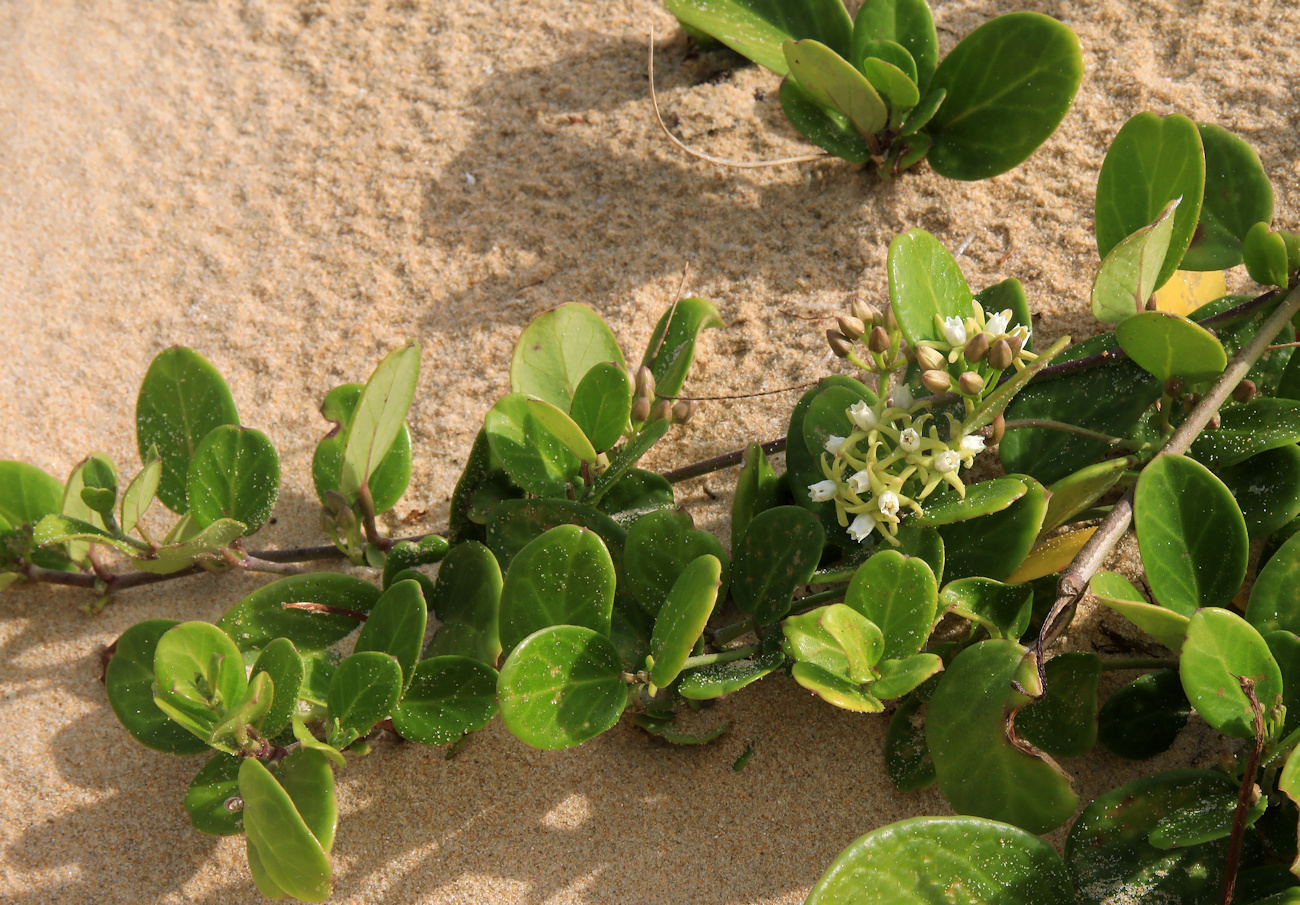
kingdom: Plantae
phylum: Tracheophyta
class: Magnoliopsida
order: Gentianales
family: Apocynaceae
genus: Cynanchum
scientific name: Cynanchum natalitium
